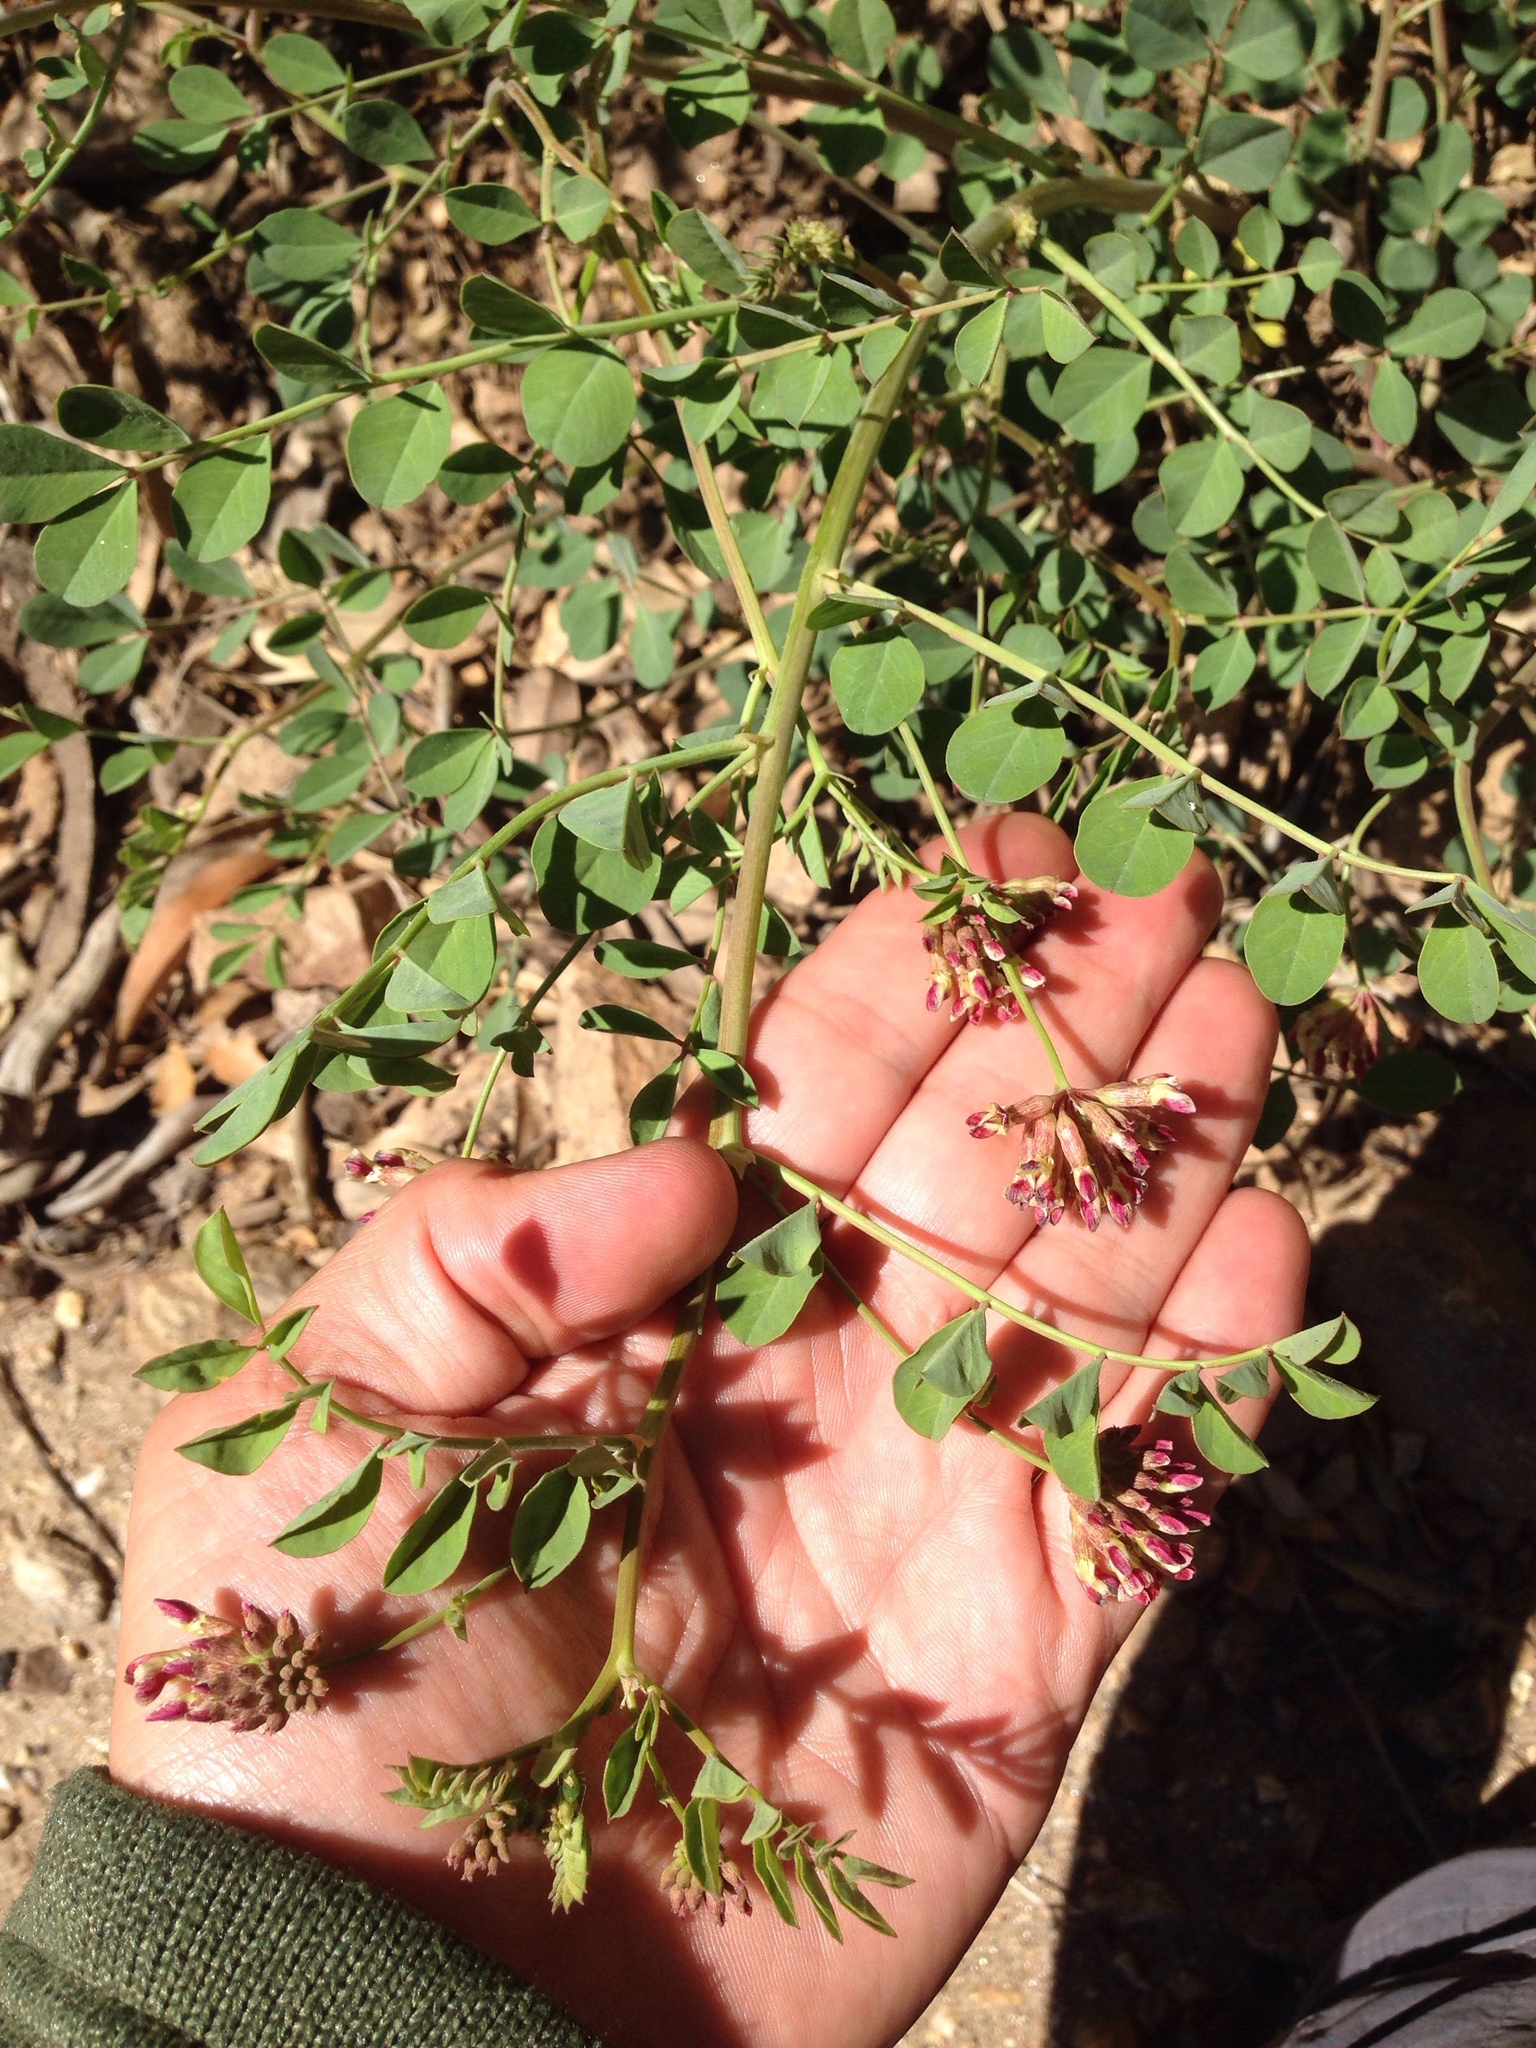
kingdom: Plantae
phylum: Tracheophyta
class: Magnoliopsida
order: Fabales
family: Fabaceae
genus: Hosackia
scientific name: Hosackia crassifolia
